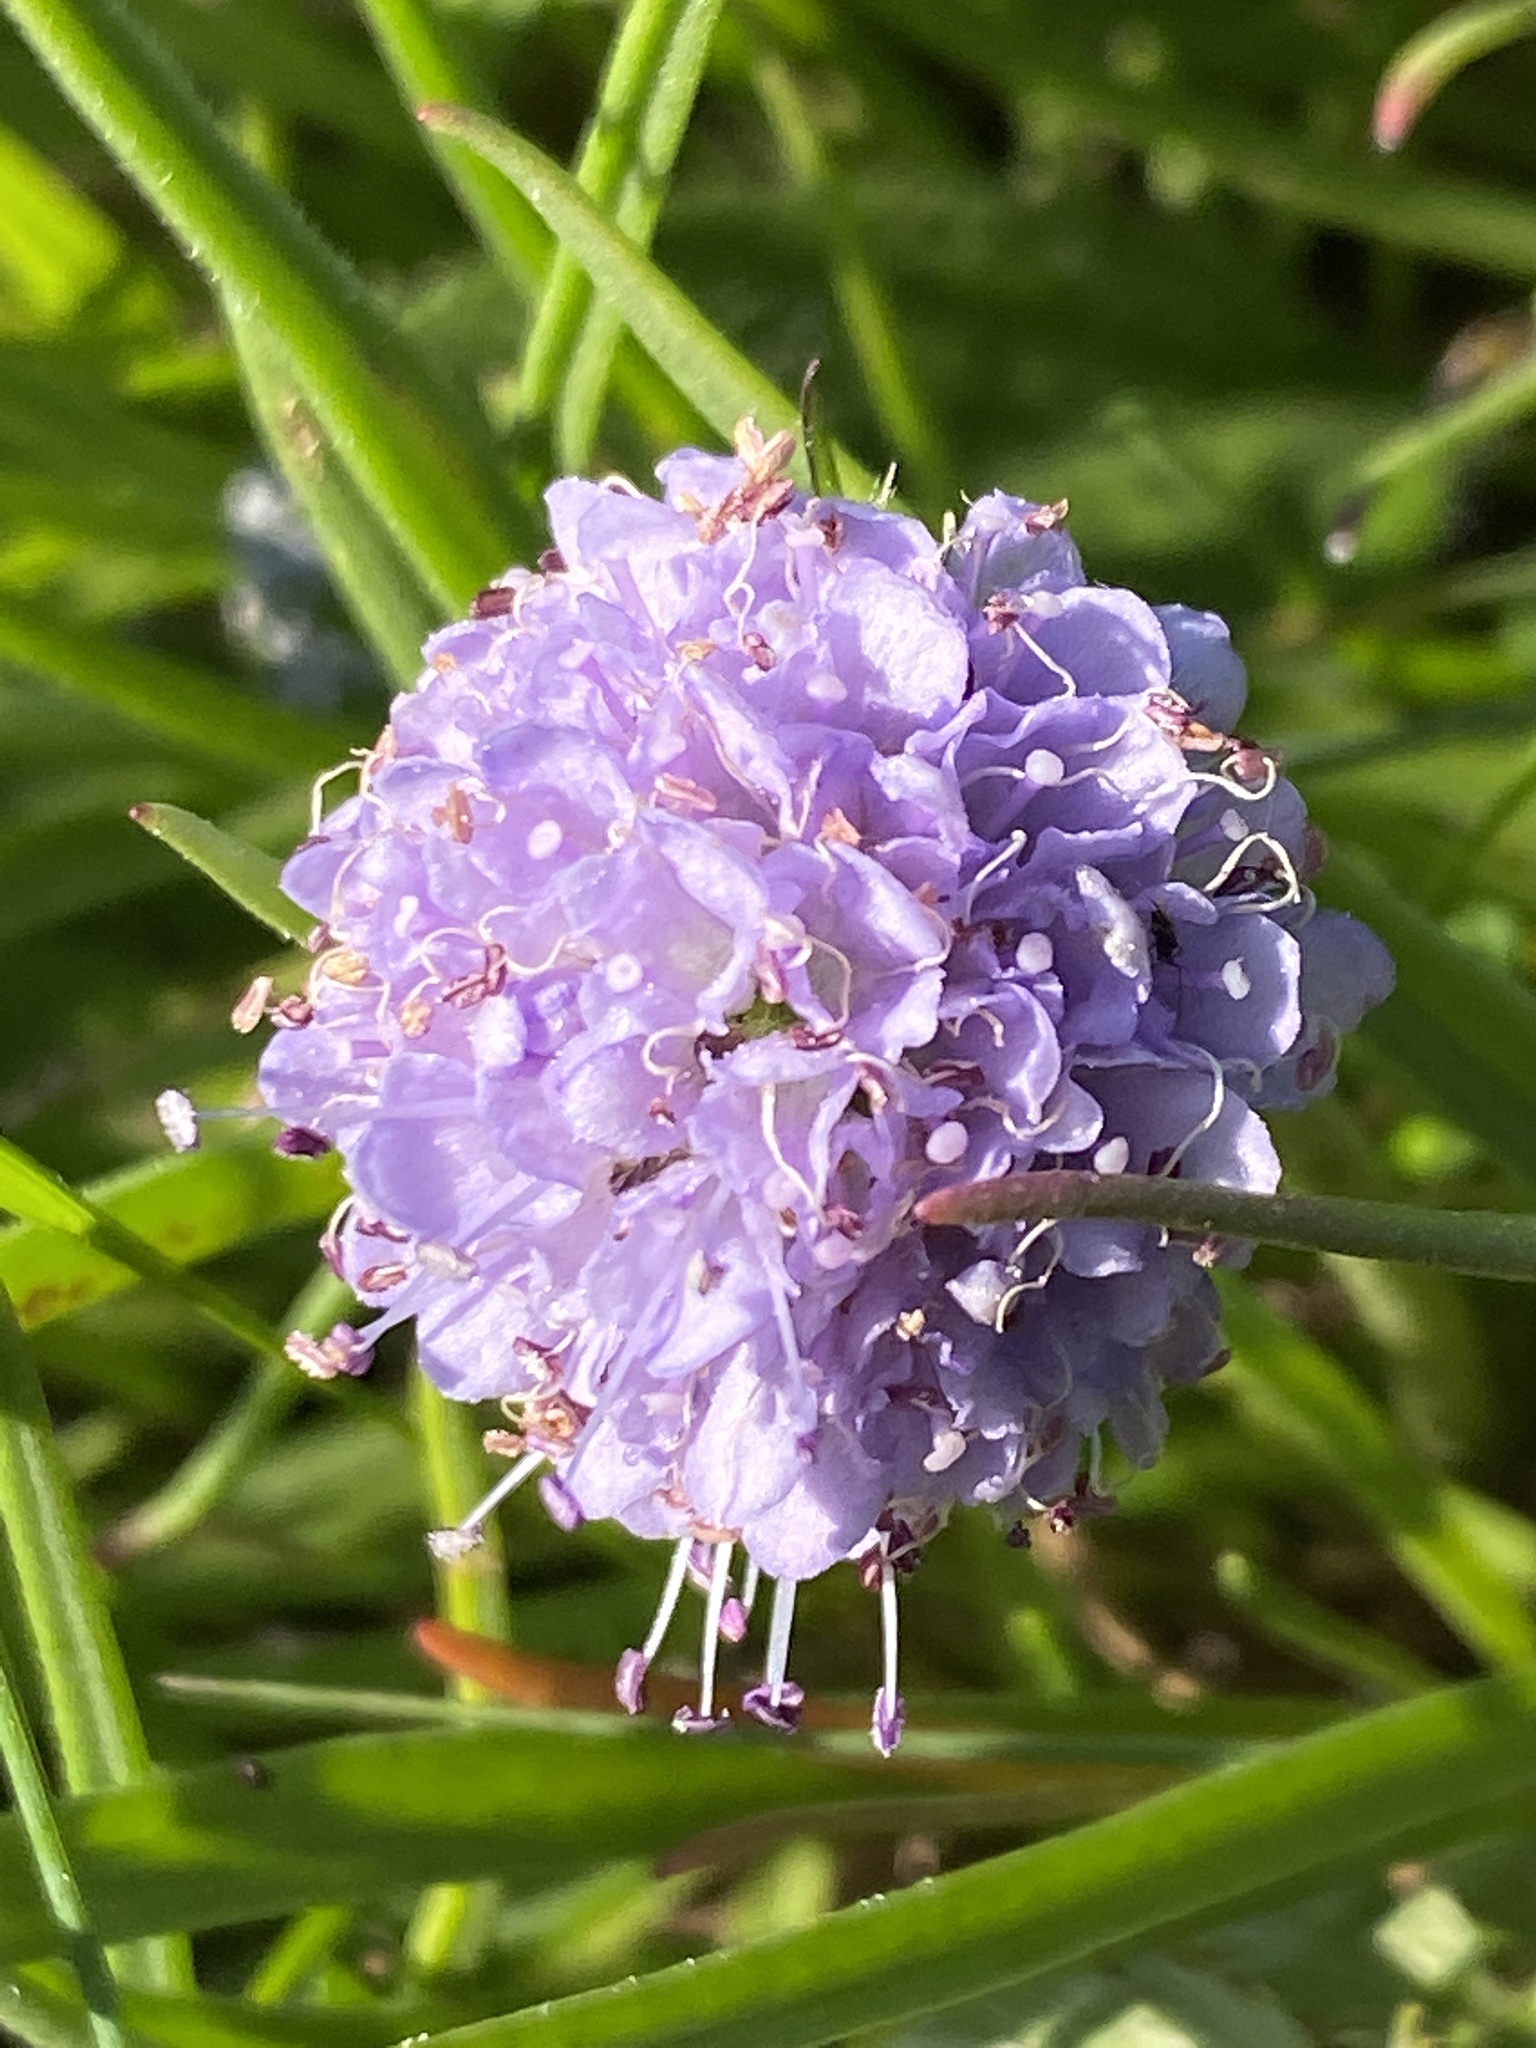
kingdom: Plantae
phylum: Tracheophyta
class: Magnoliopsida
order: Dipsacales
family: Caprifoliaceae
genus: Succisa
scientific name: Succisa pratensis
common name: Devil's-bit
